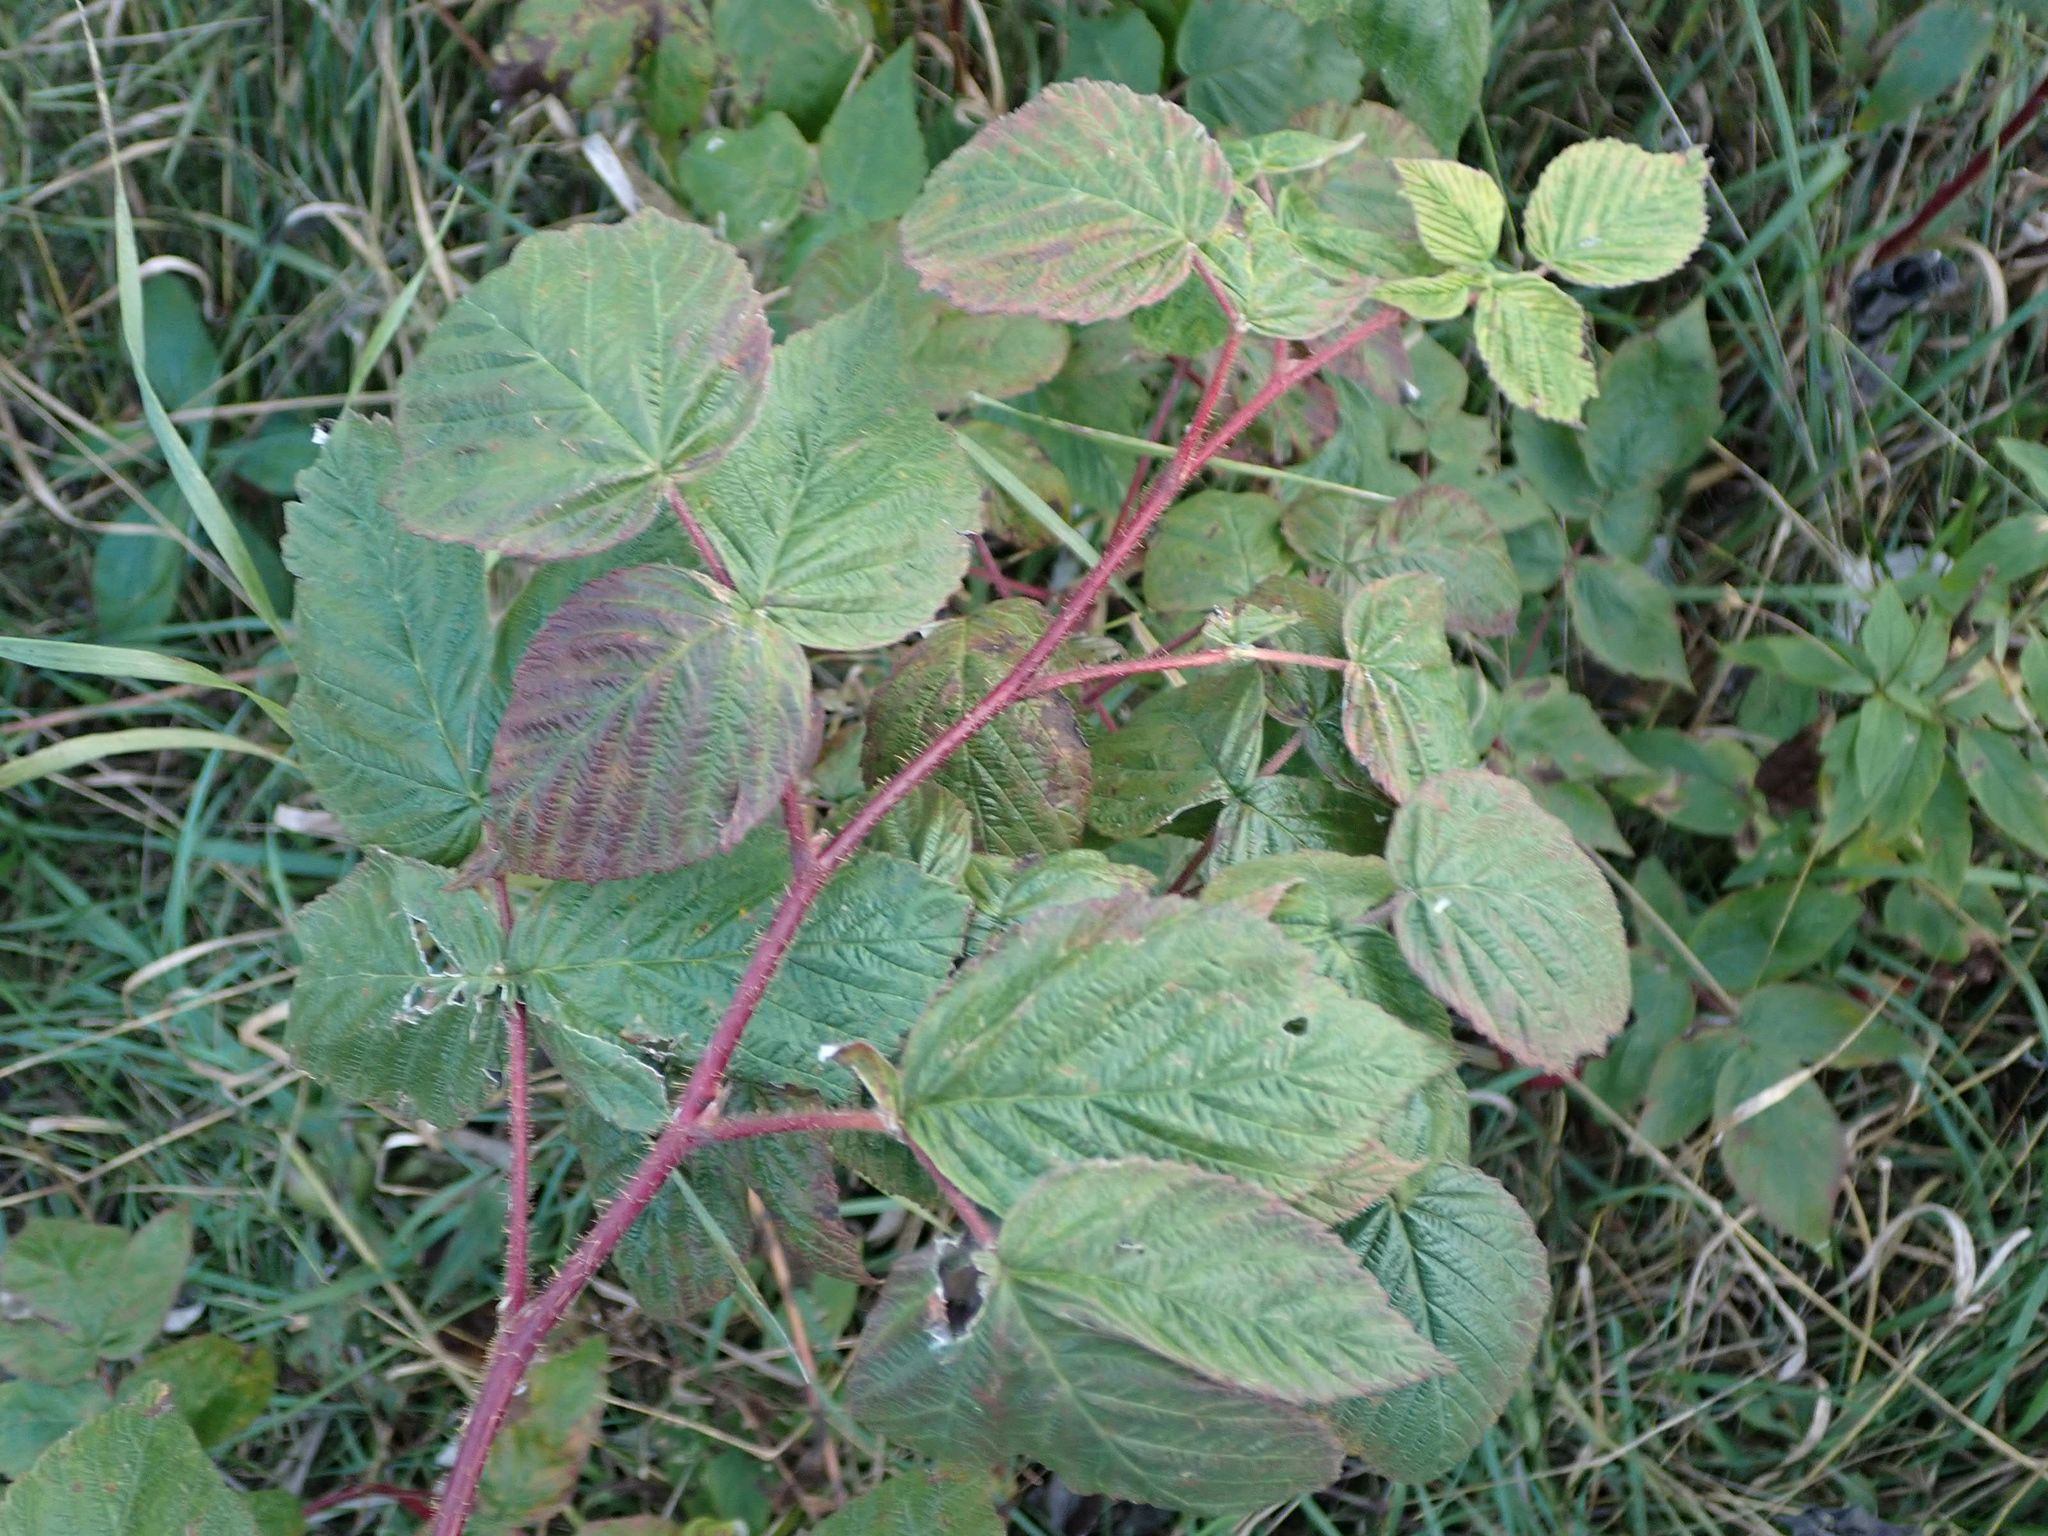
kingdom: Plantae
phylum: Tracheophyta
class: Magnoliopsida
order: Rosales
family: Rosaceae
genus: Rubus
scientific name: Rubus idaeus
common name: Raspberry
